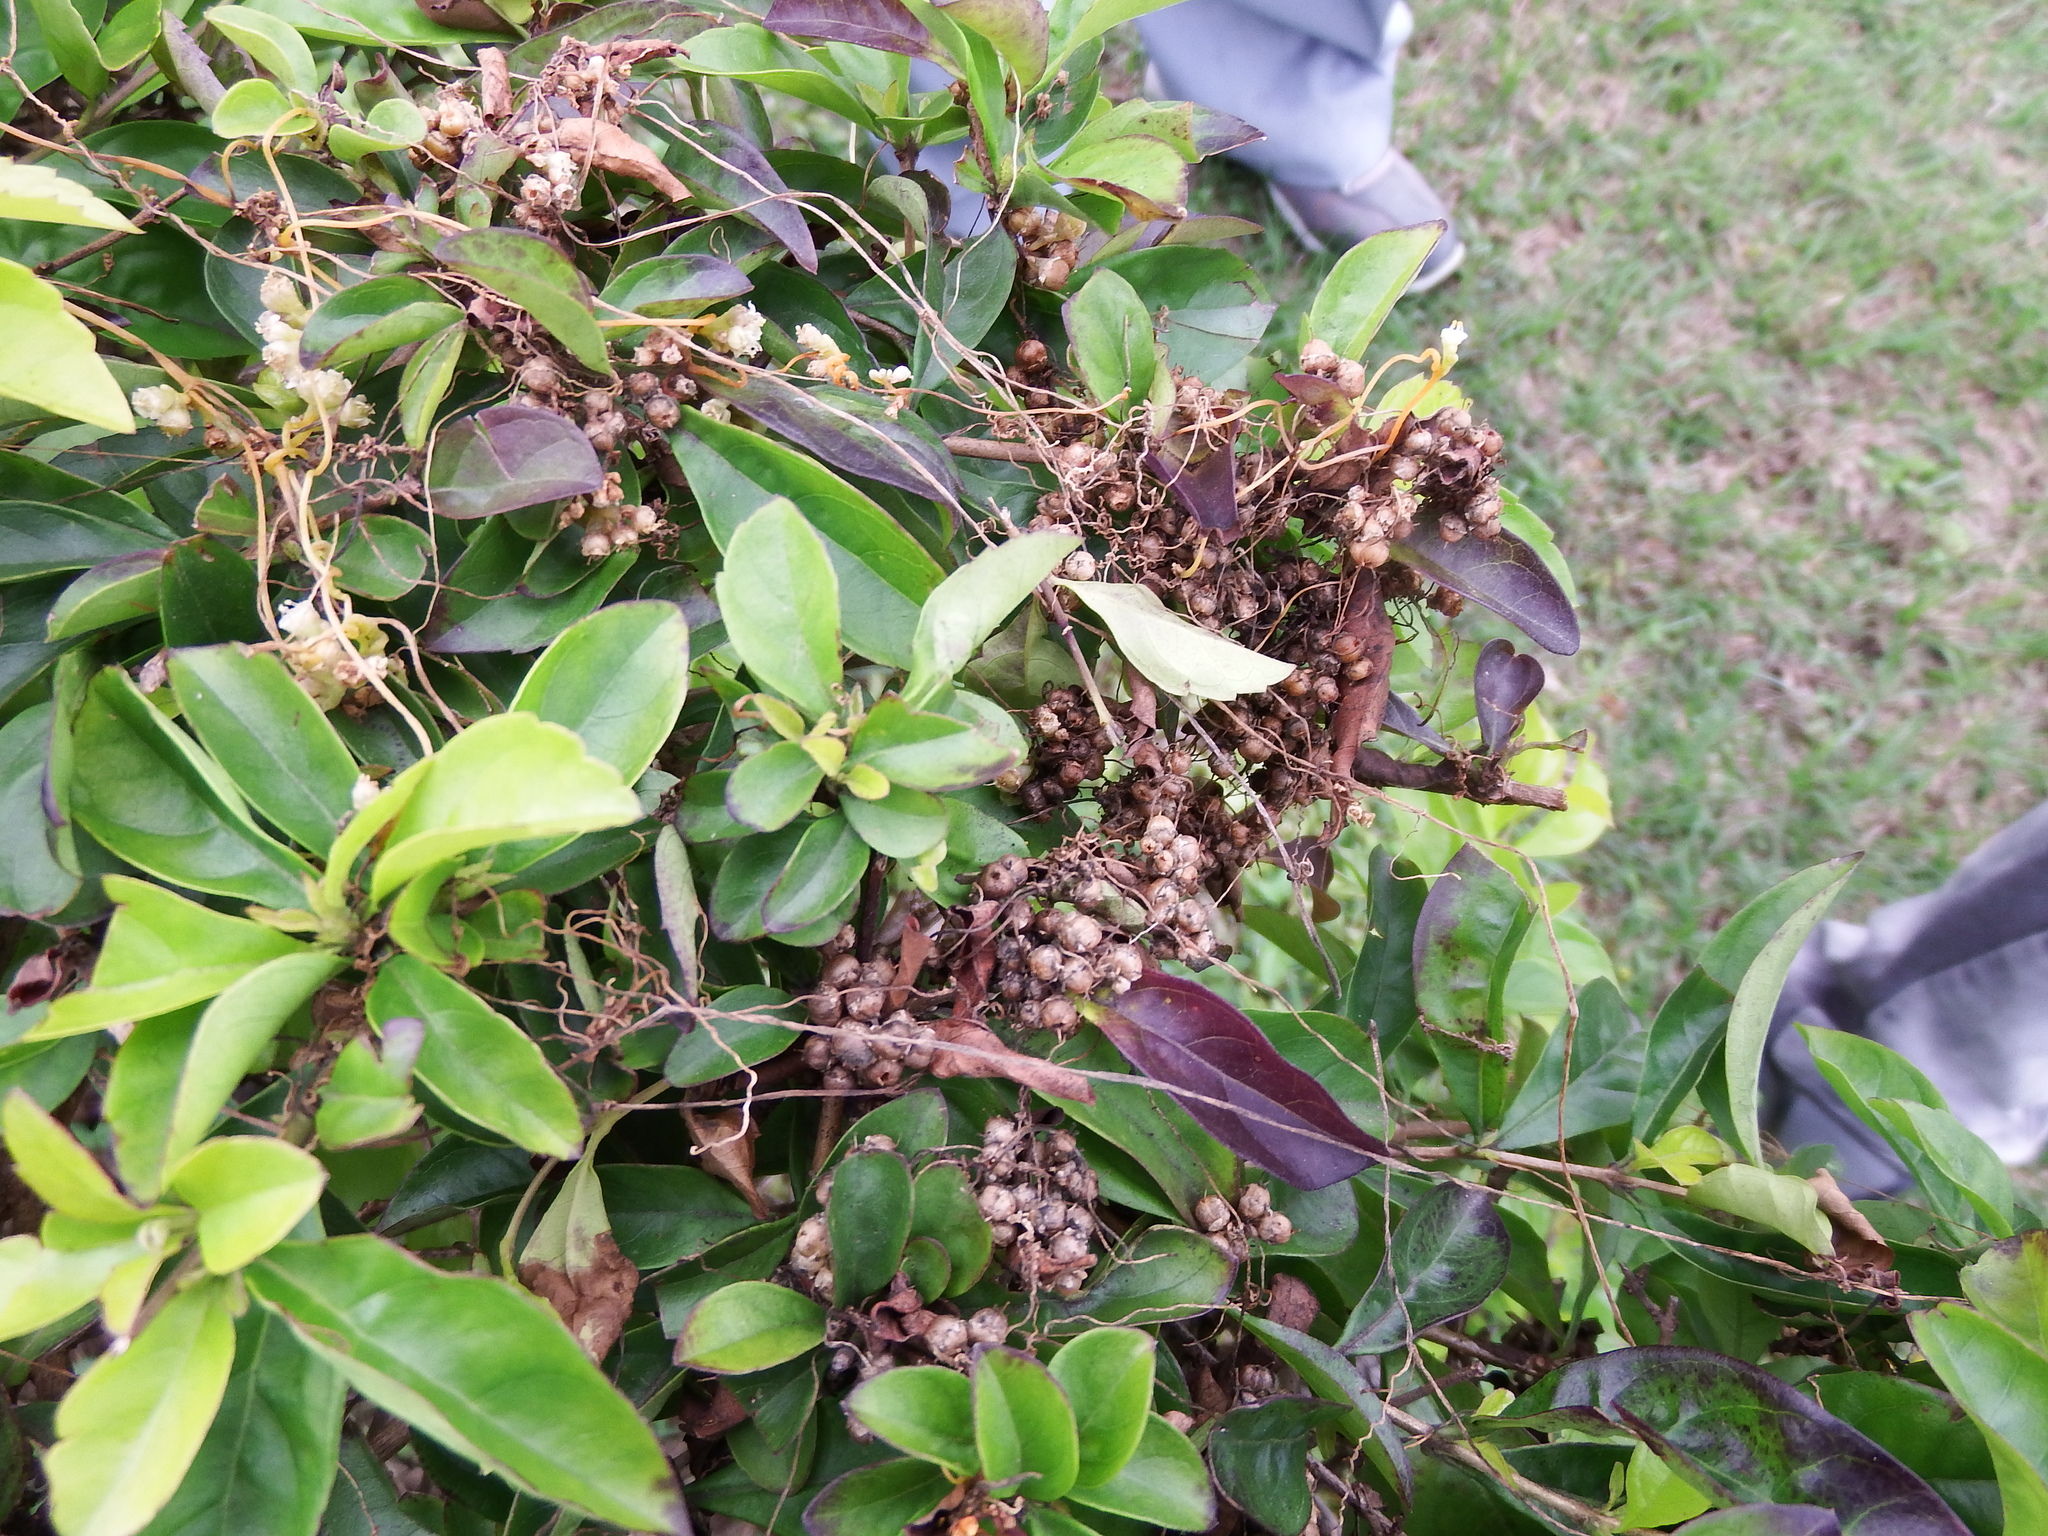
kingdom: Plantae
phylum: Tracheophyta
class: Magnoliopsida
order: Solanales
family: Convolvulaceae
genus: Cuscuta
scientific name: Cuscuta campestris
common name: Yellow dodder
